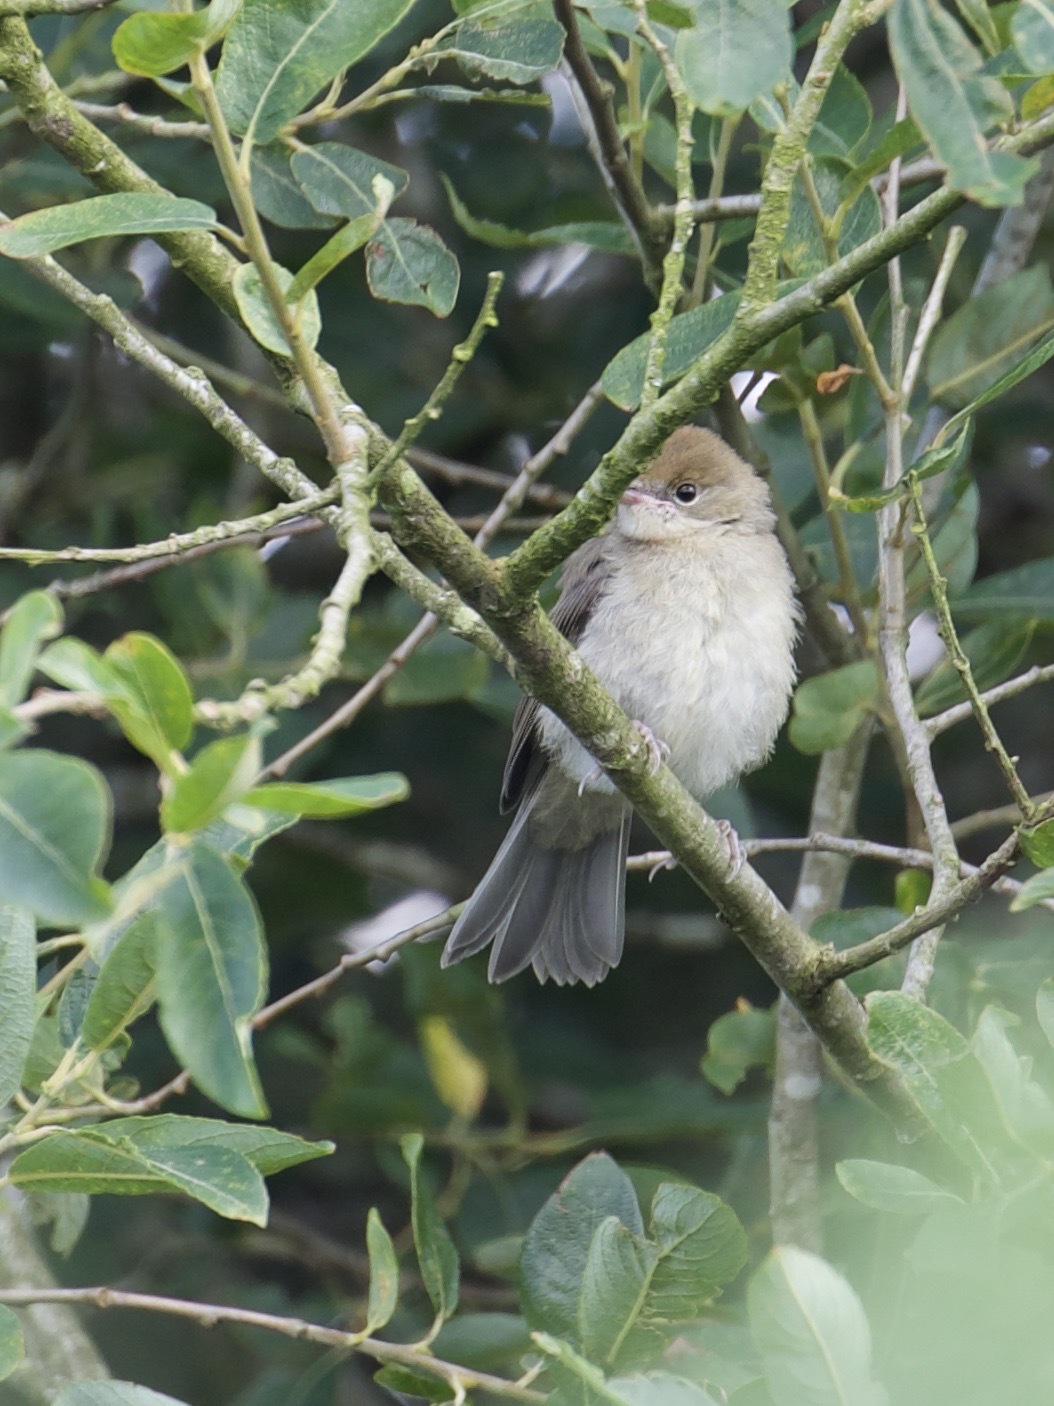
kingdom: Animalia
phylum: Chordata
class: Aves
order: Passeriformes
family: Sylviidae
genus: Sylvia
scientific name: Sylvia atricapilla
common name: Eurasian blackcap
